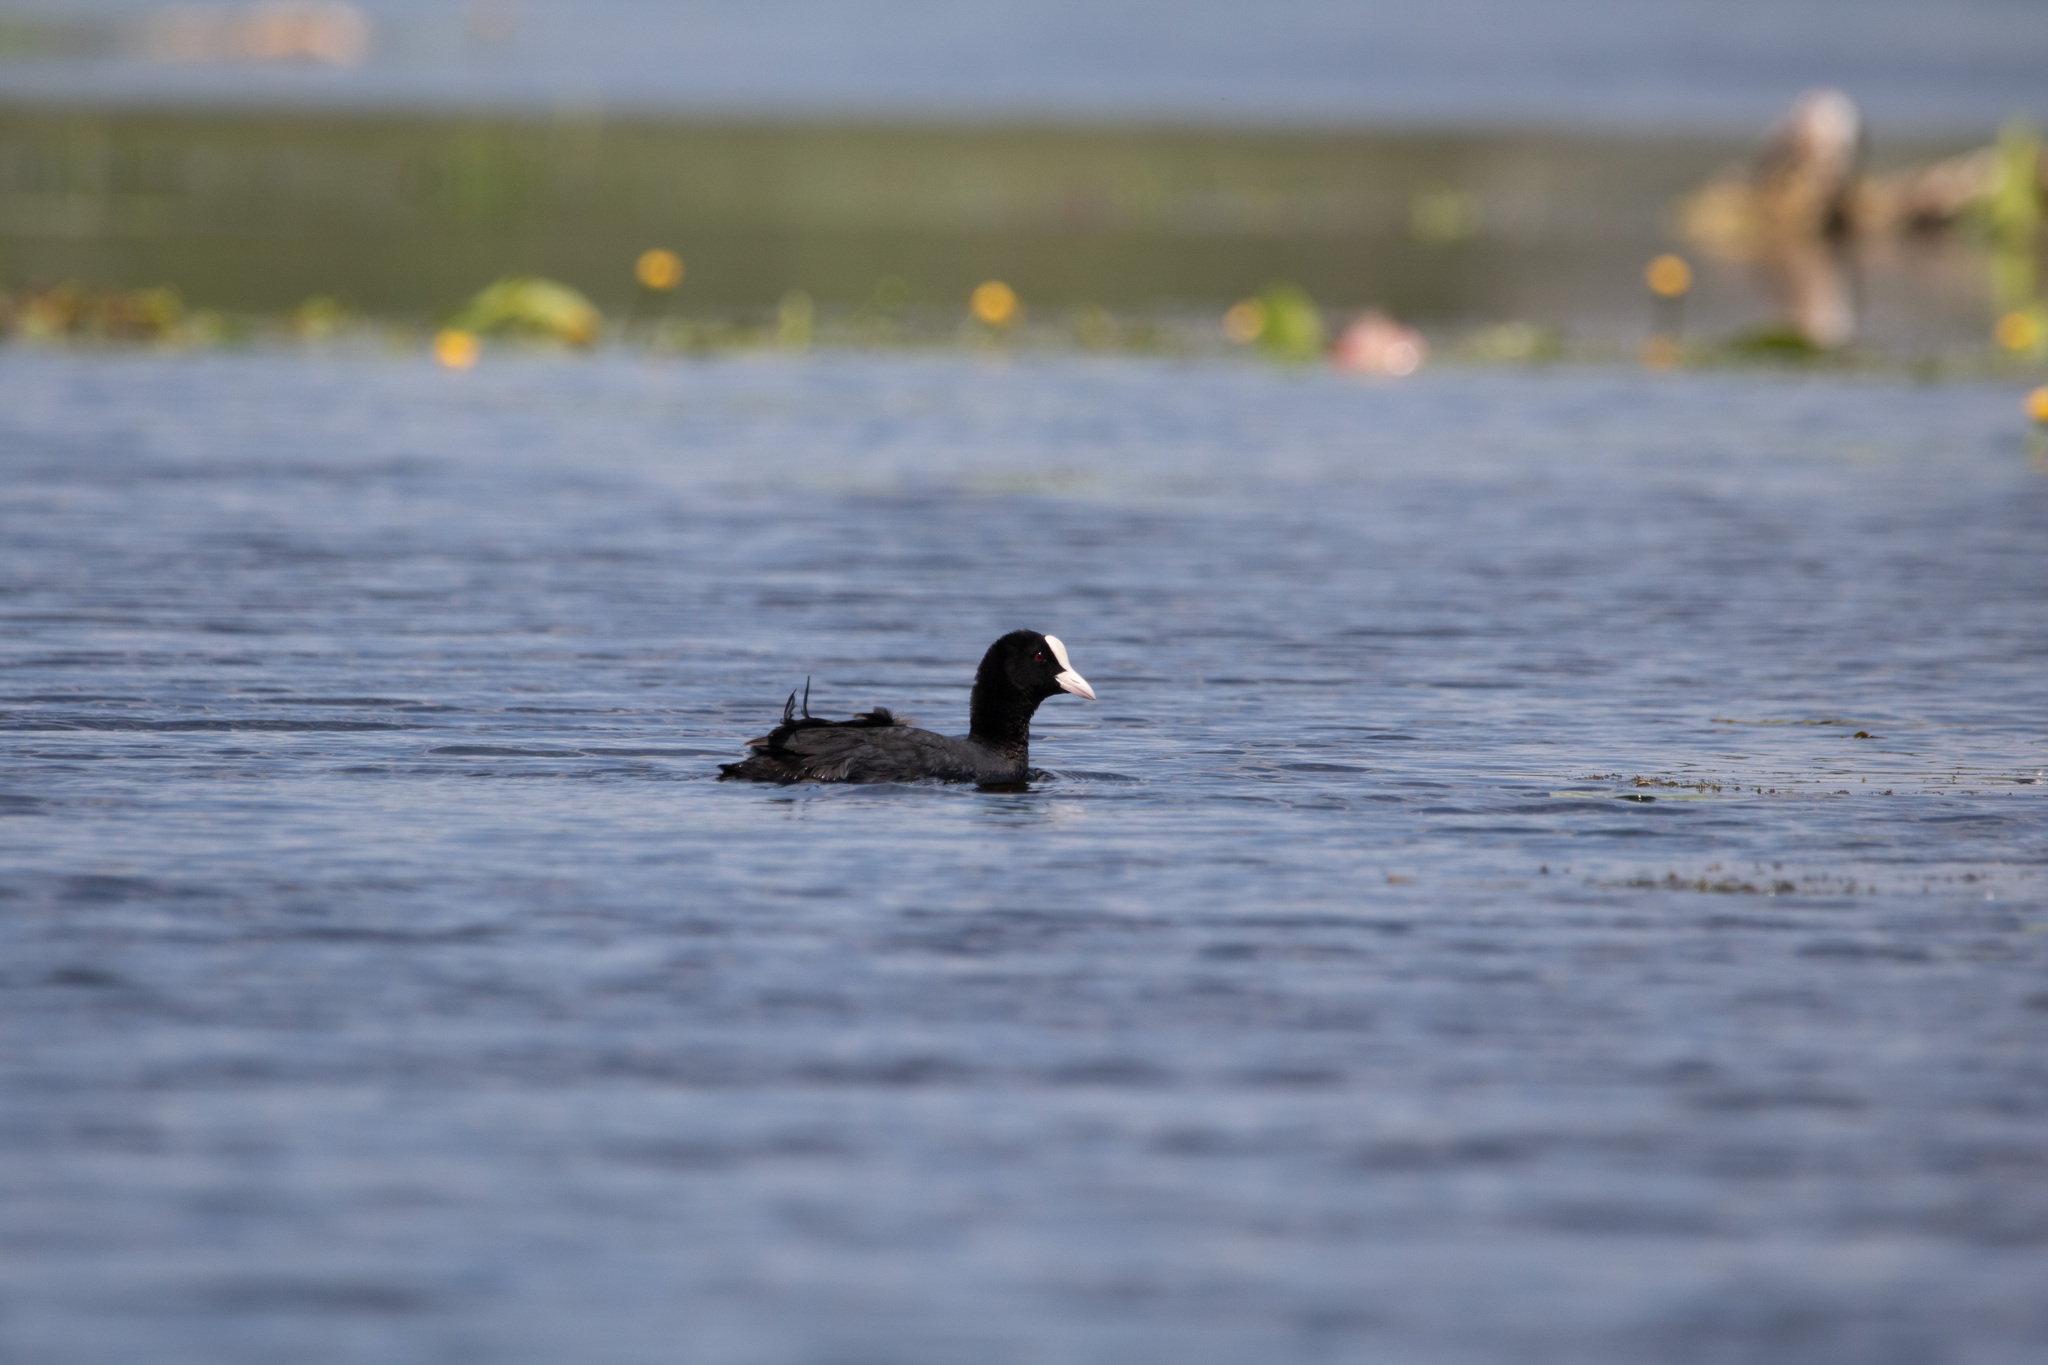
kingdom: Animalia
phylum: Chordata
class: Aves
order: Gruiformes
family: Rallidae
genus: Fulica
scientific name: Fulica atra
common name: Eurasian coot
